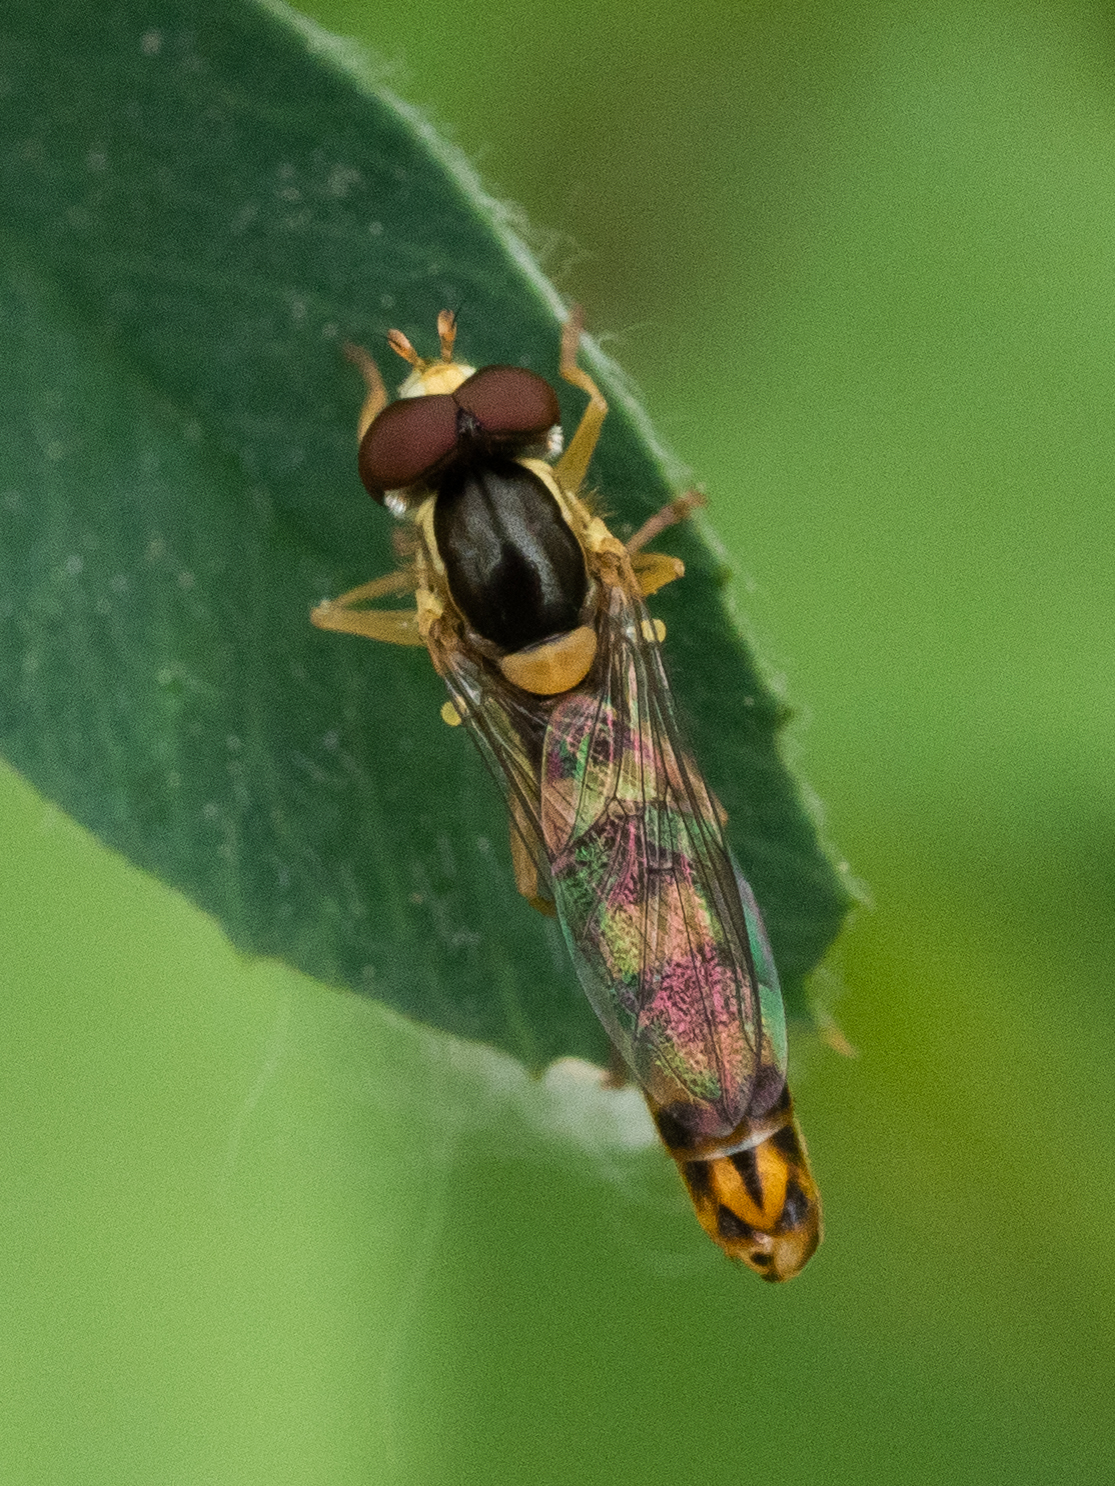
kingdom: Animalia
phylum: Arthropoda
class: Insecta
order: Diptera
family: Syrphidae
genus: Sphaerophoria
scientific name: Sphaerophoria scripta
